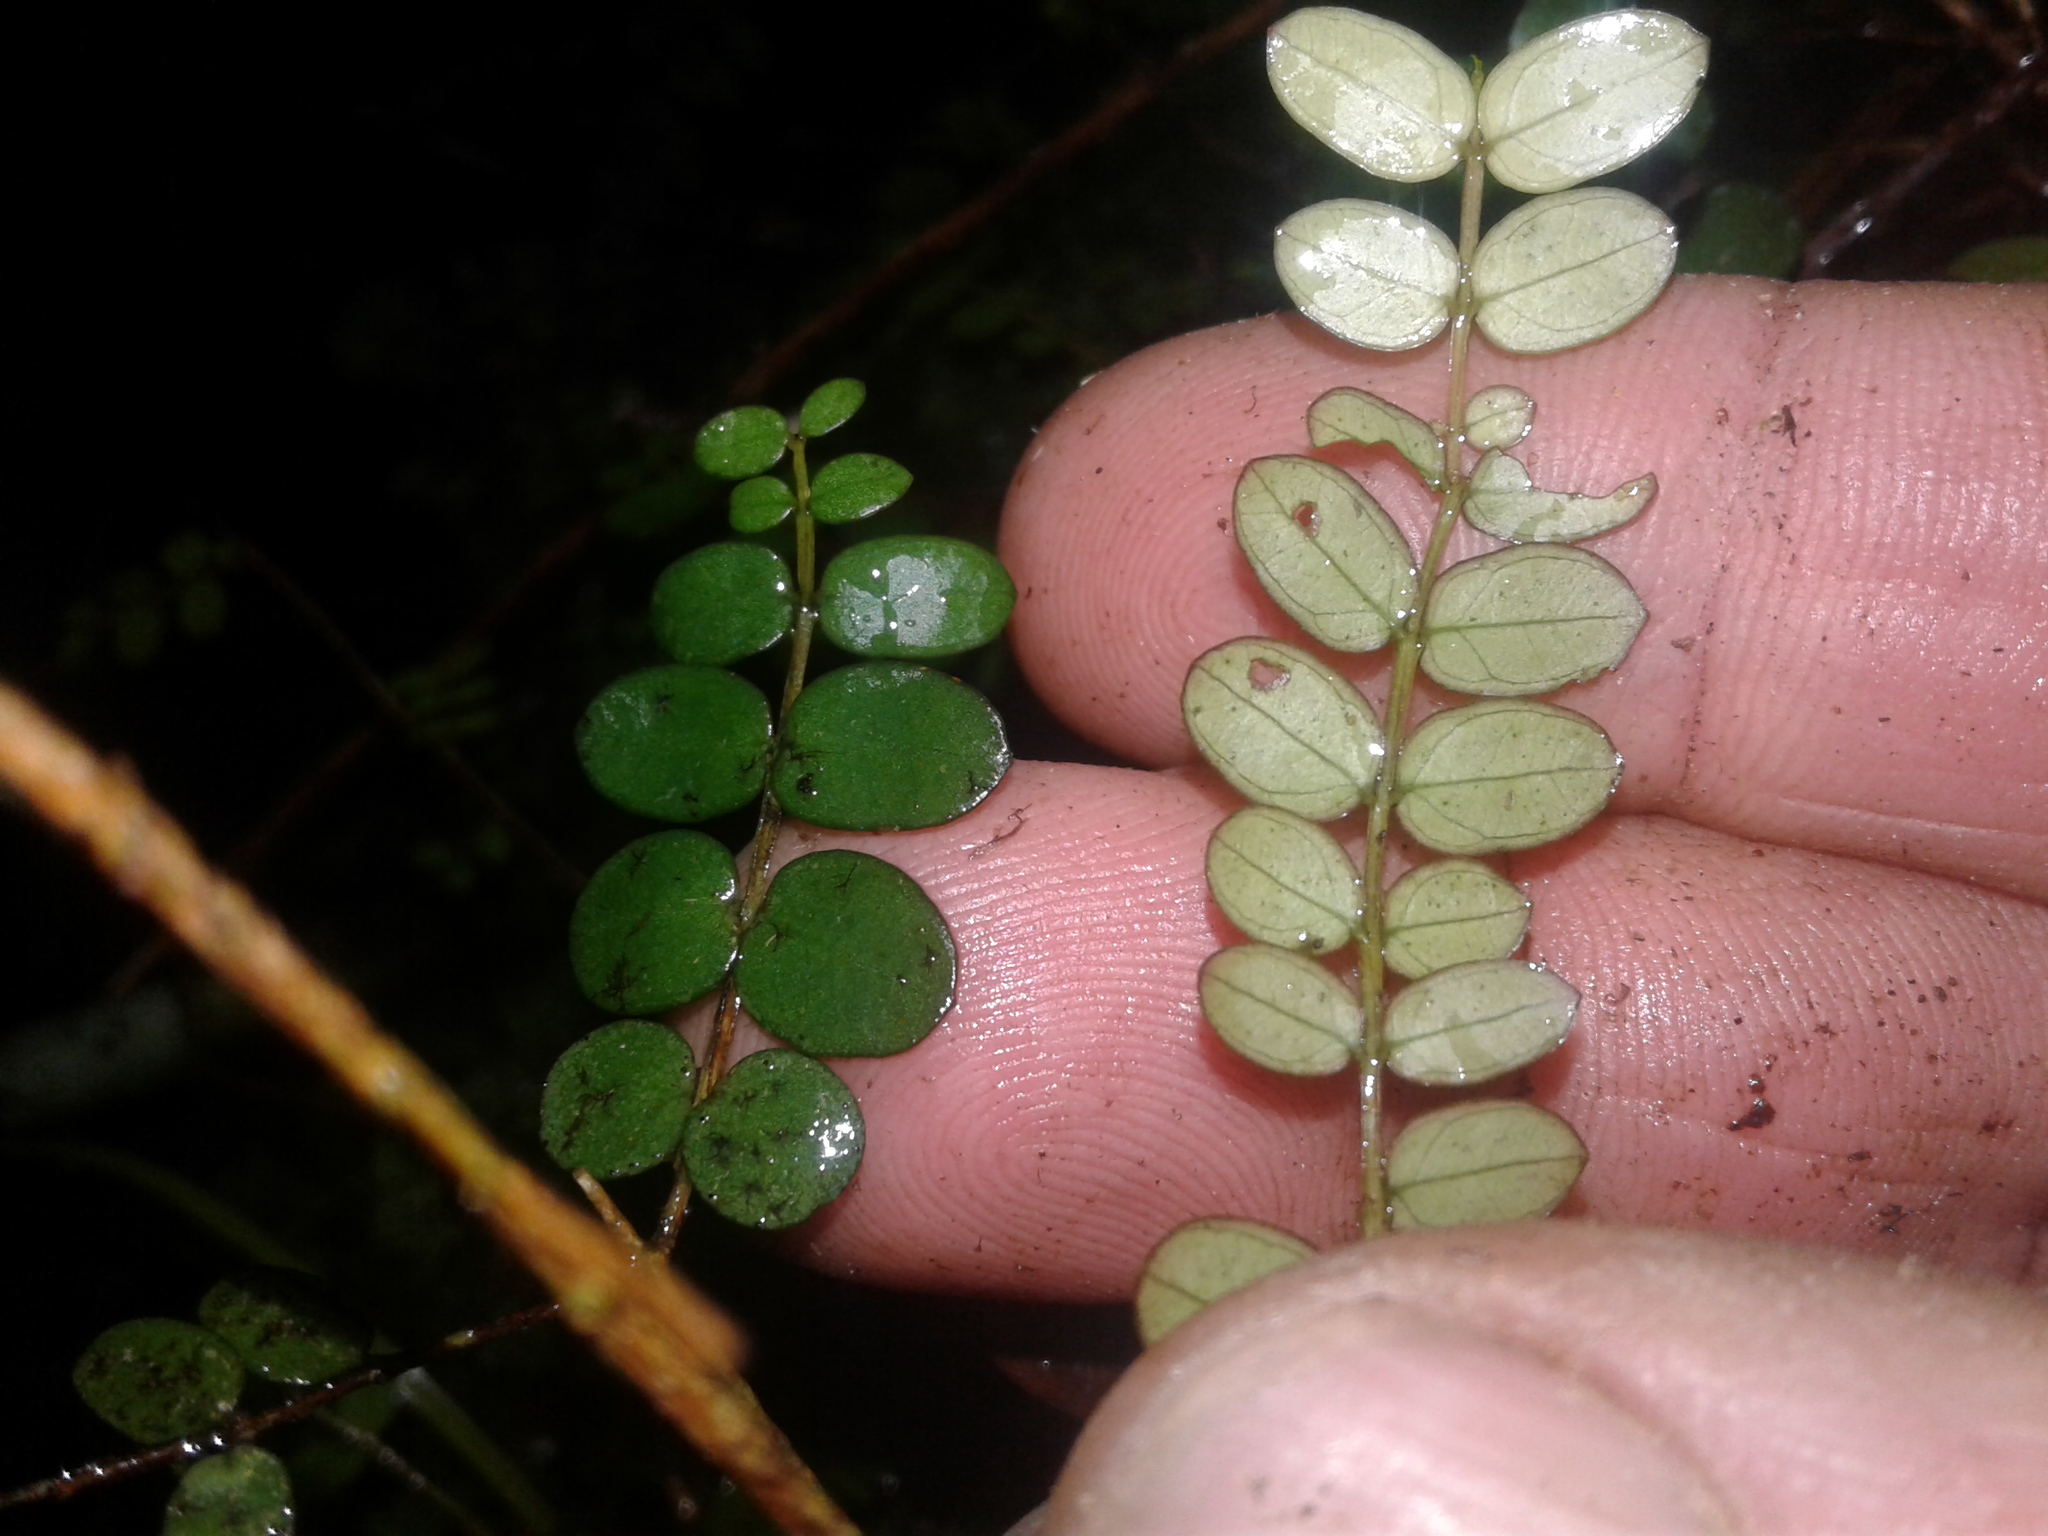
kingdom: Plantae
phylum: Tracheophyta
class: Magnoliopsida
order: Myrtales
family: Myrtaceae
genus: Metrosideros
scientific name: Metrosideros diffusa
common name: Small ratavine
